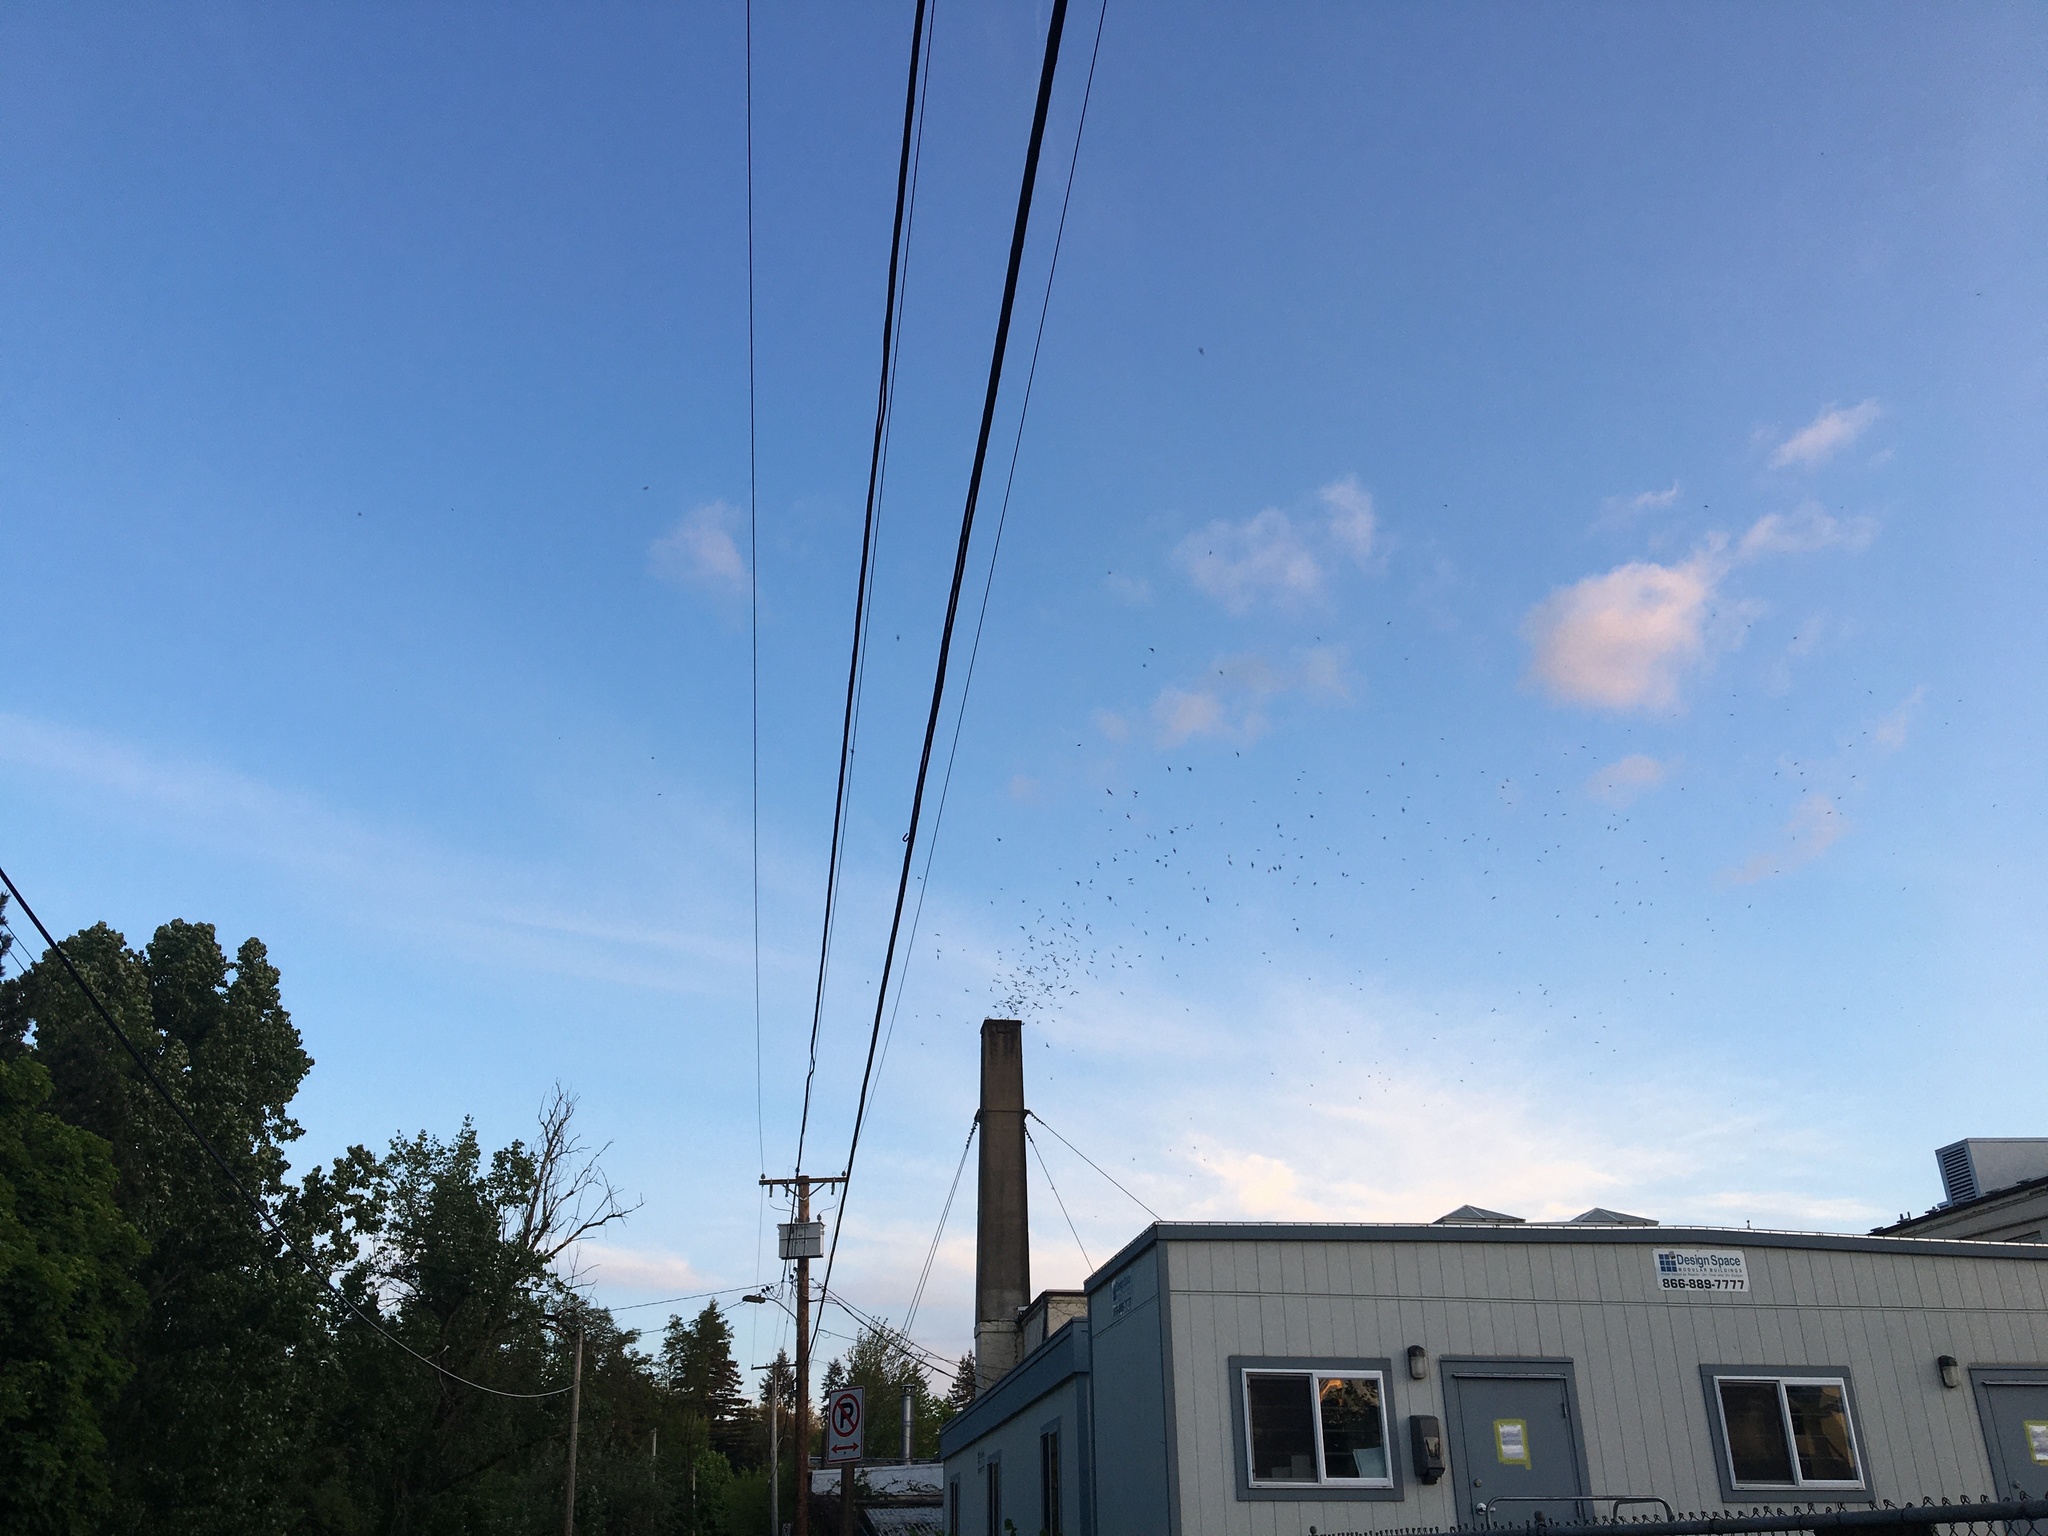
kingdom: Animalia
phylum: Chordata
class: Aves
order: Apodiformes
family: Apodidae
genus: Chaetura
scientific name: Chaetura vauxi
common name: Vaux's swift
